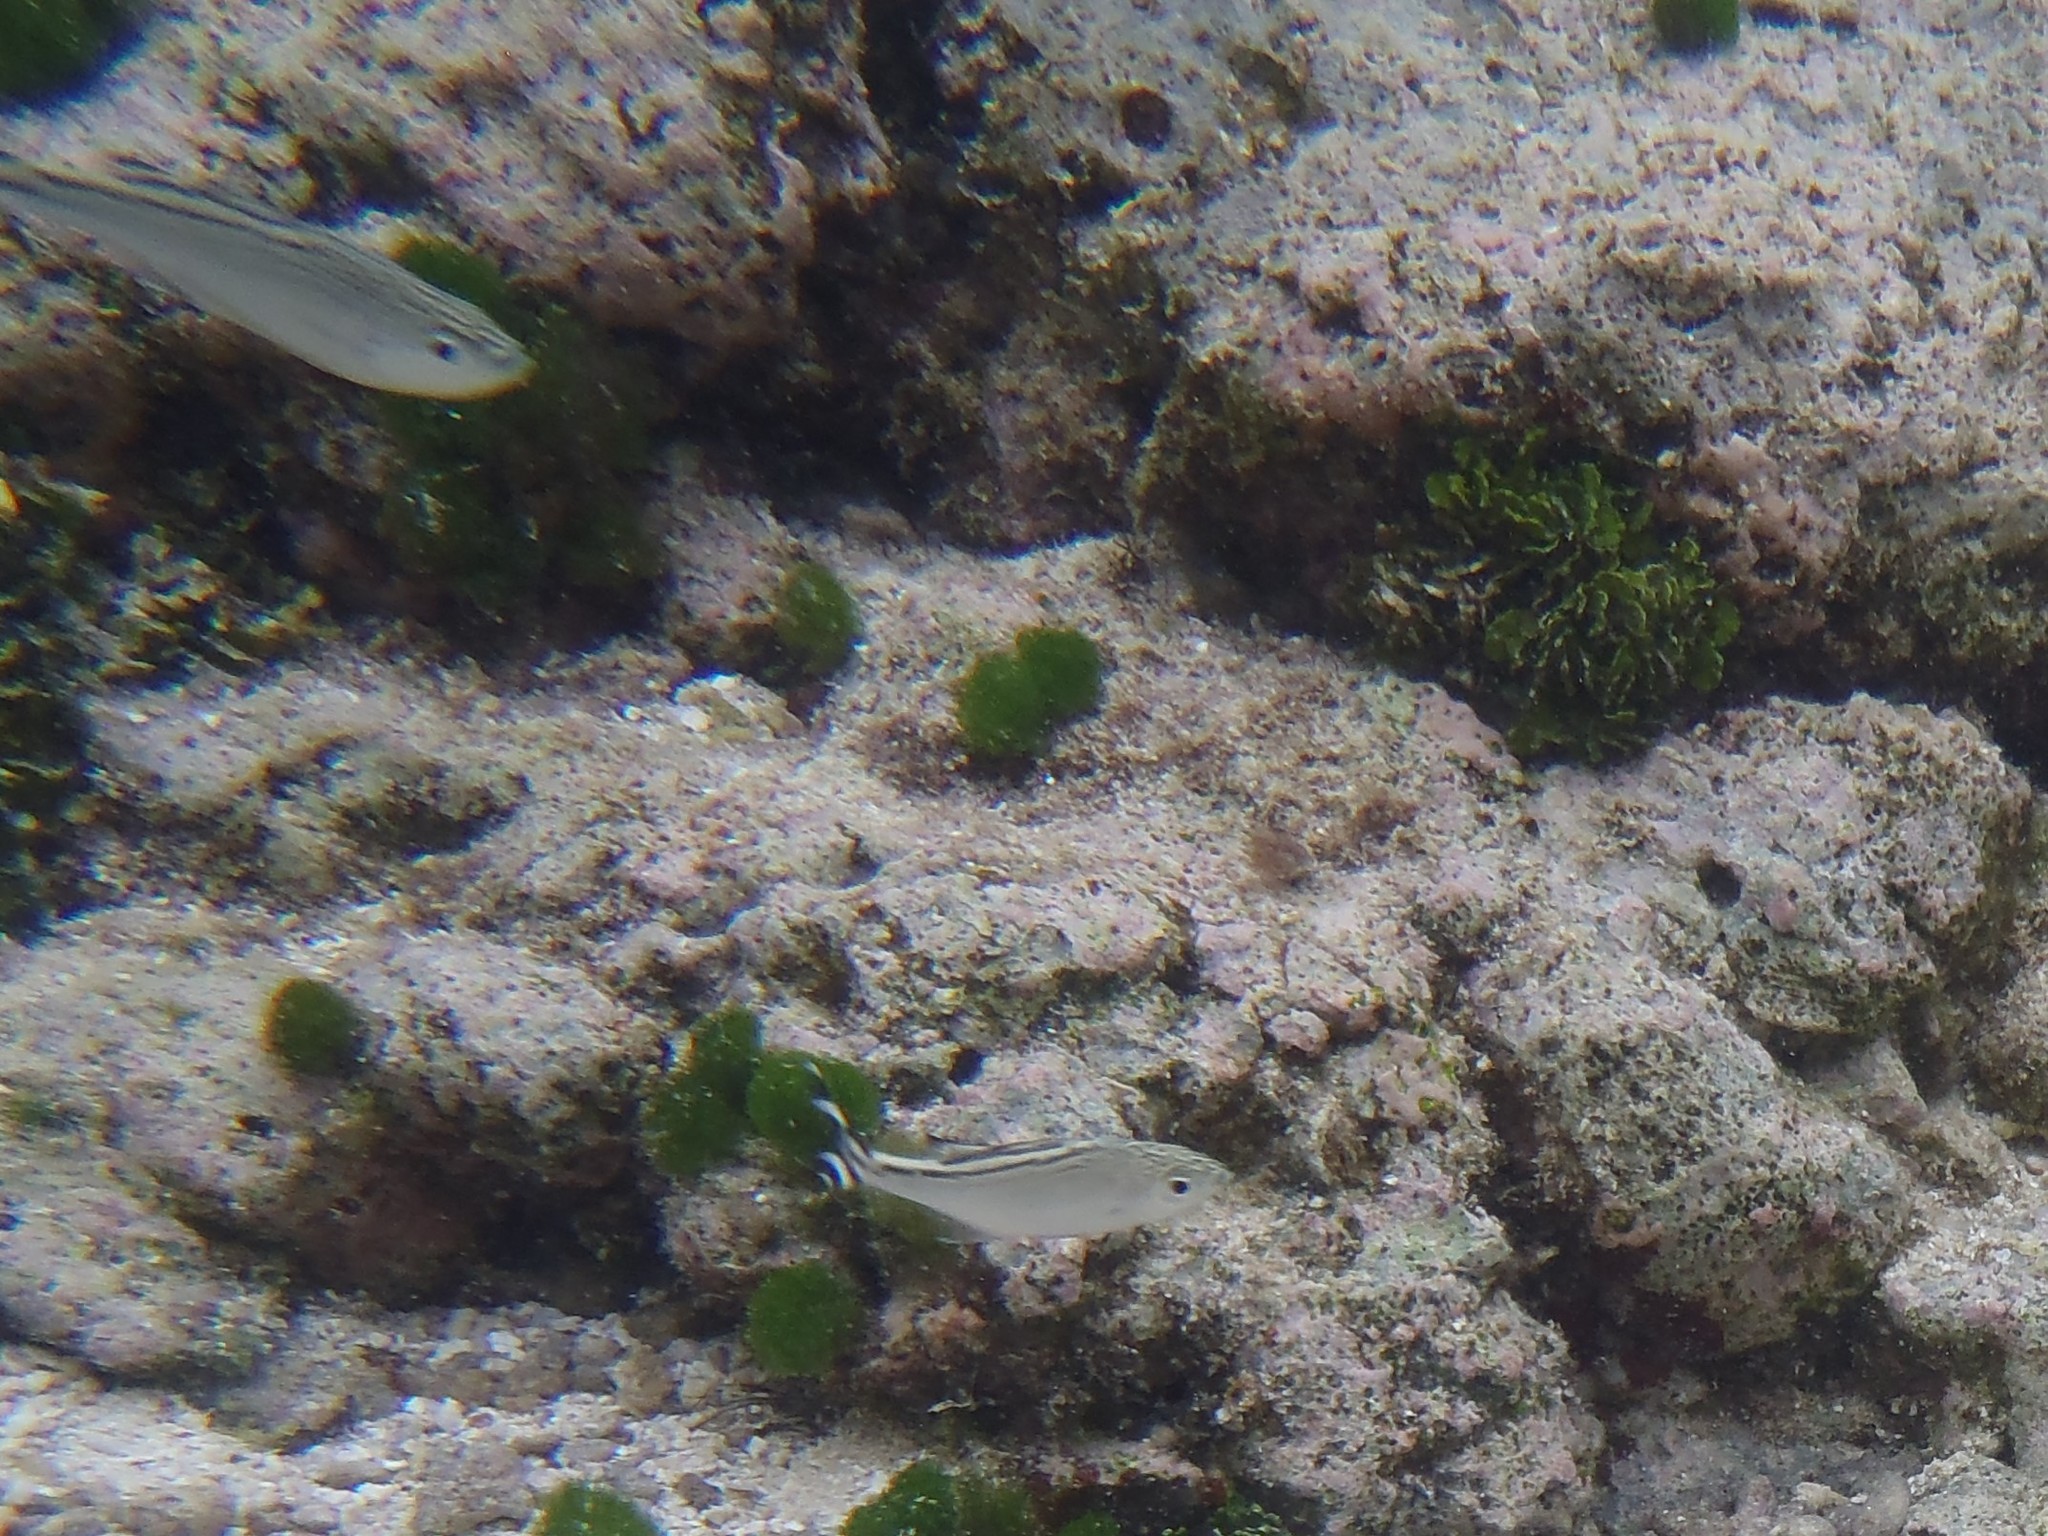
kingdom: Animalia
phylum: Chordata
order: Perciformes
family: Kuhliidae
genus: Kuhlia
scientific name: Kuhlia mugil
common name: Barred flagtail
